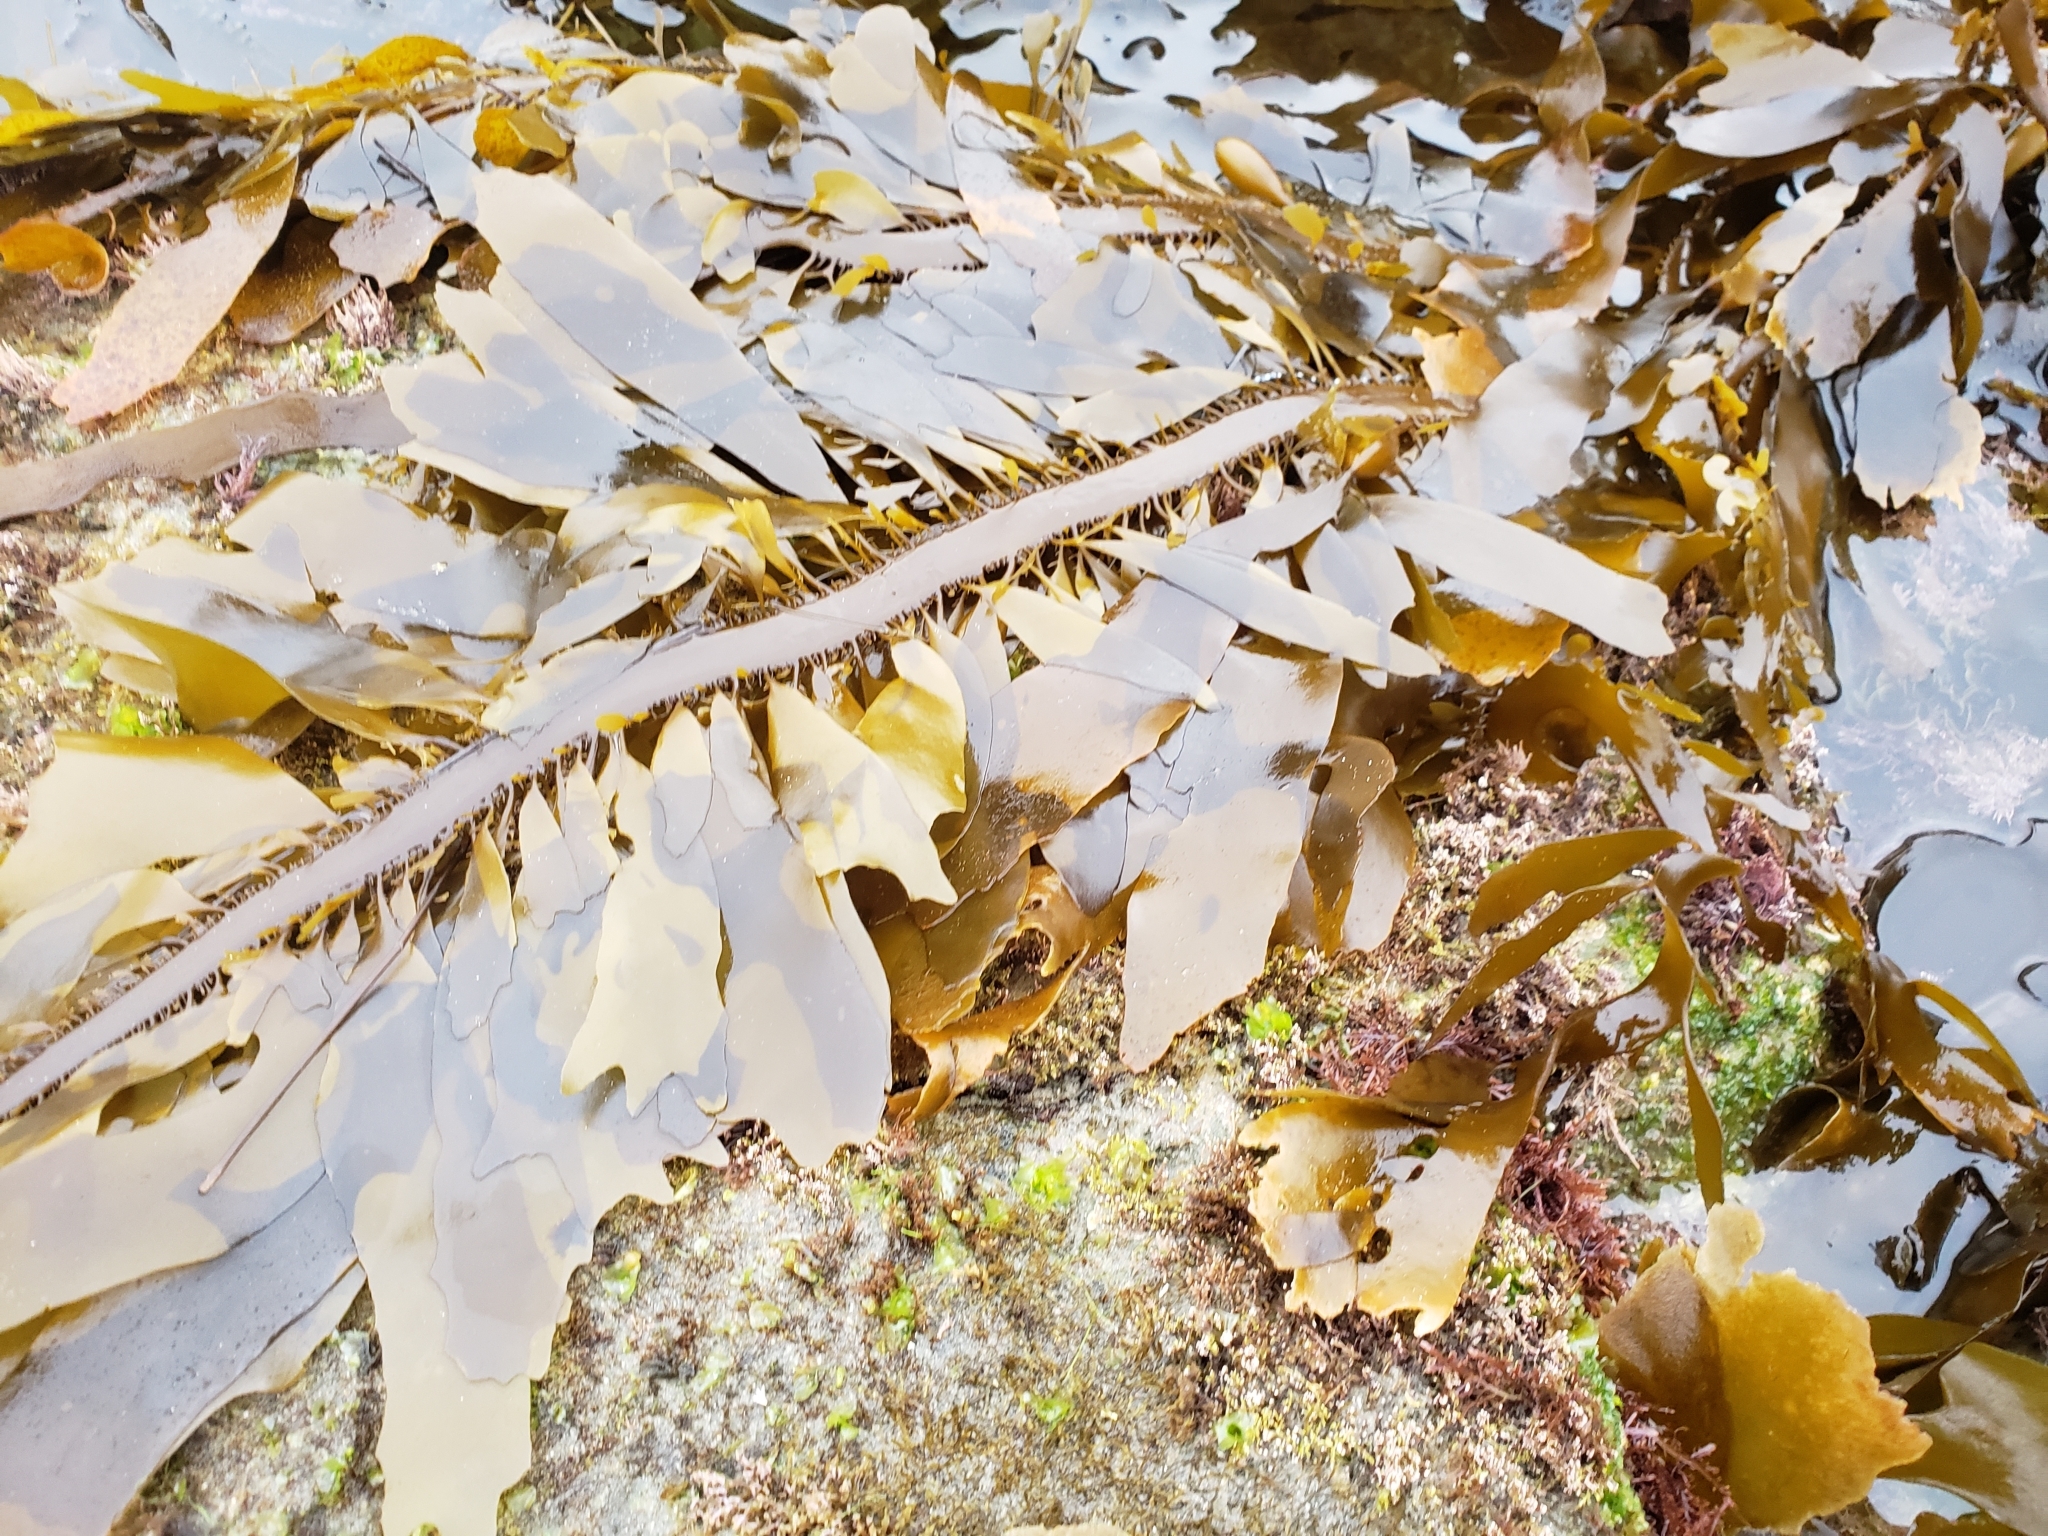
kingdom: Chromista
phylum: Ochrophyta
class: Phaeophyceae
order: Laminariales
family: Lessoniaceae
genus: Egregia
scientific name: Egregia menziesii
